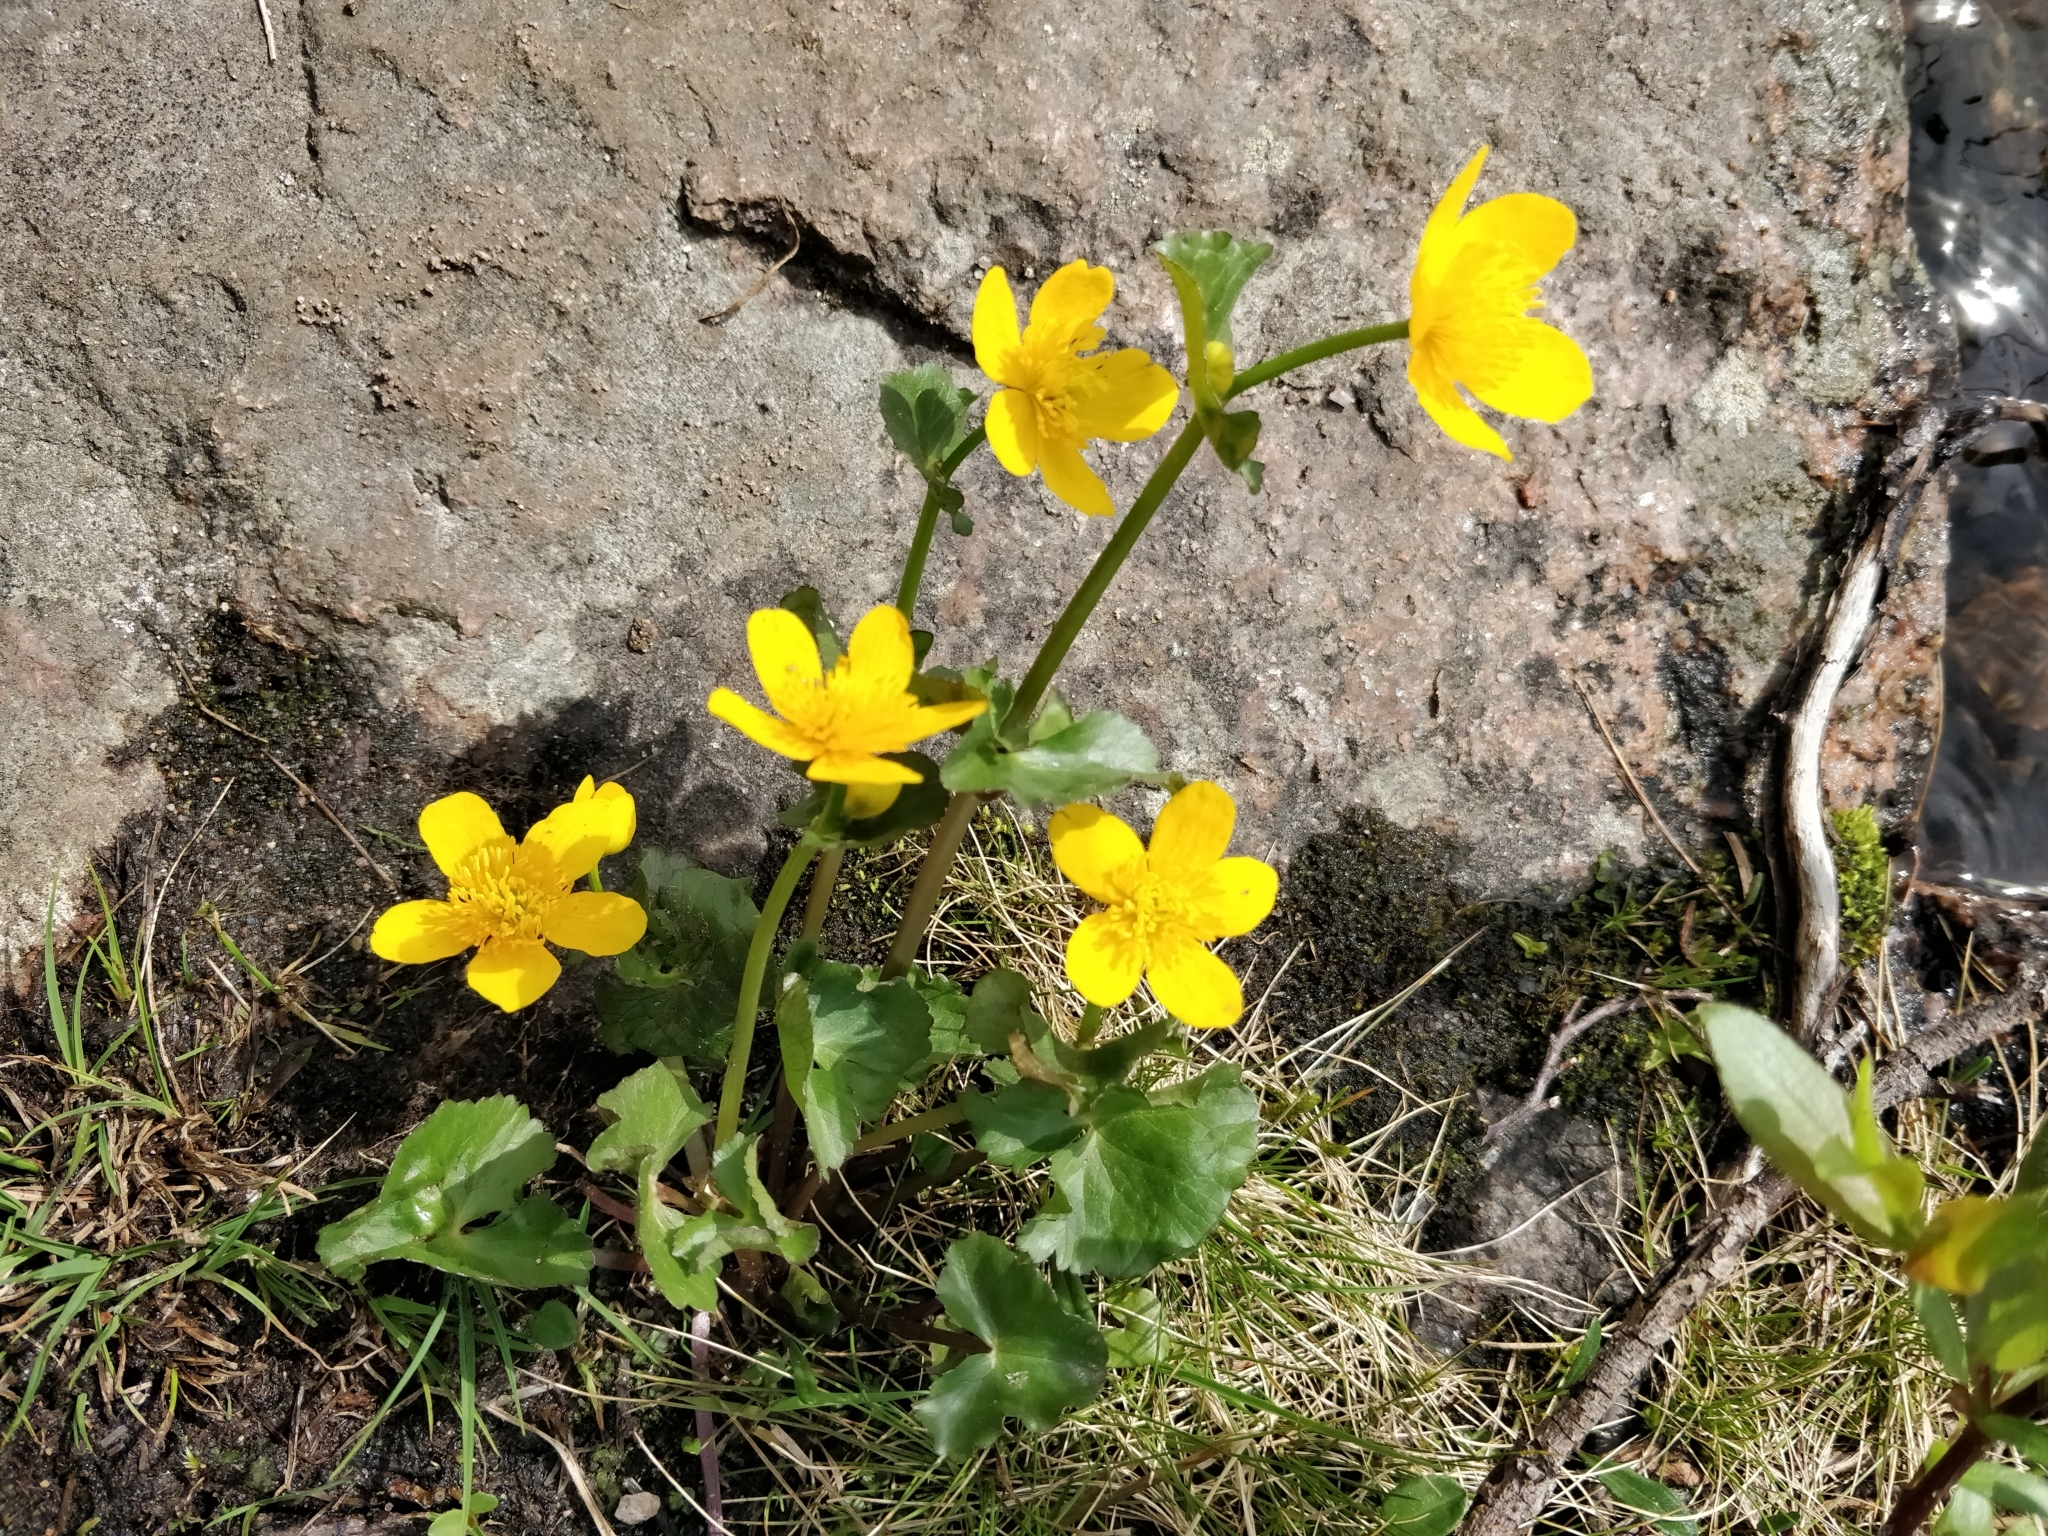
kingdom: Plantae
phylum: Tracheophyta
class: Magnoliopsida
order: Ranunculales
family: Ranunculaceae
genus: Caltha
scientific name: Caltha palustris
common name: Marsh marigold
